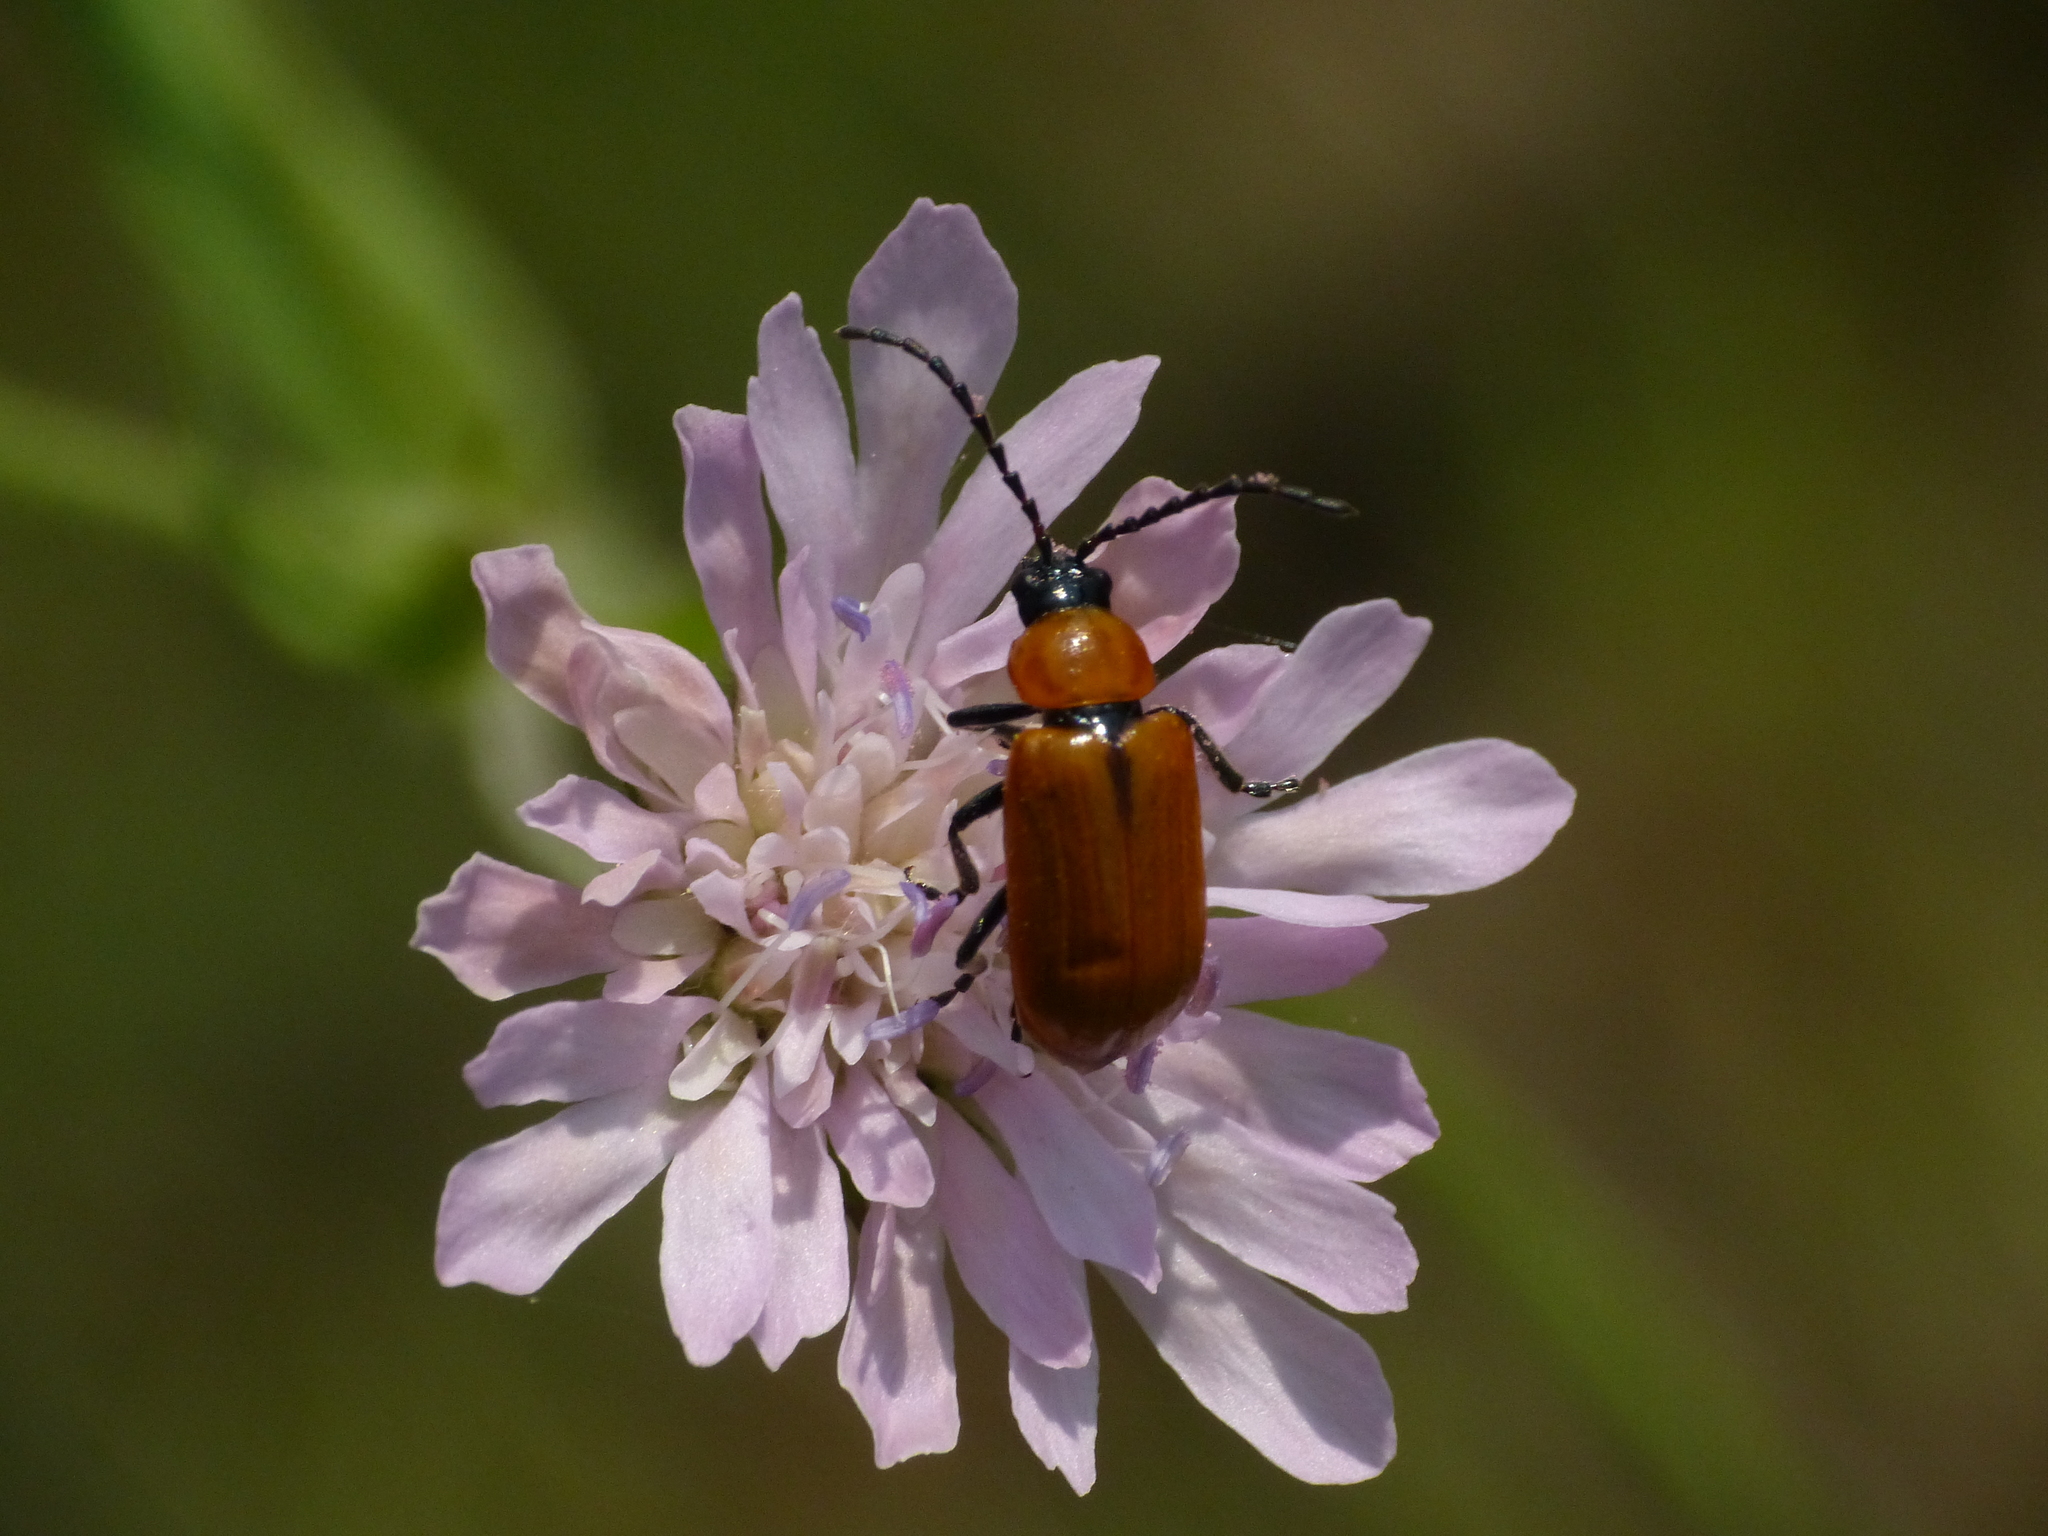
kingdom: Animalia
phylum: Arthropoda
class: Insecta
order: Coleoptera
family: Chrysomelidae
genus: Exosoma
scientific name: Exosoma lusitanicum
